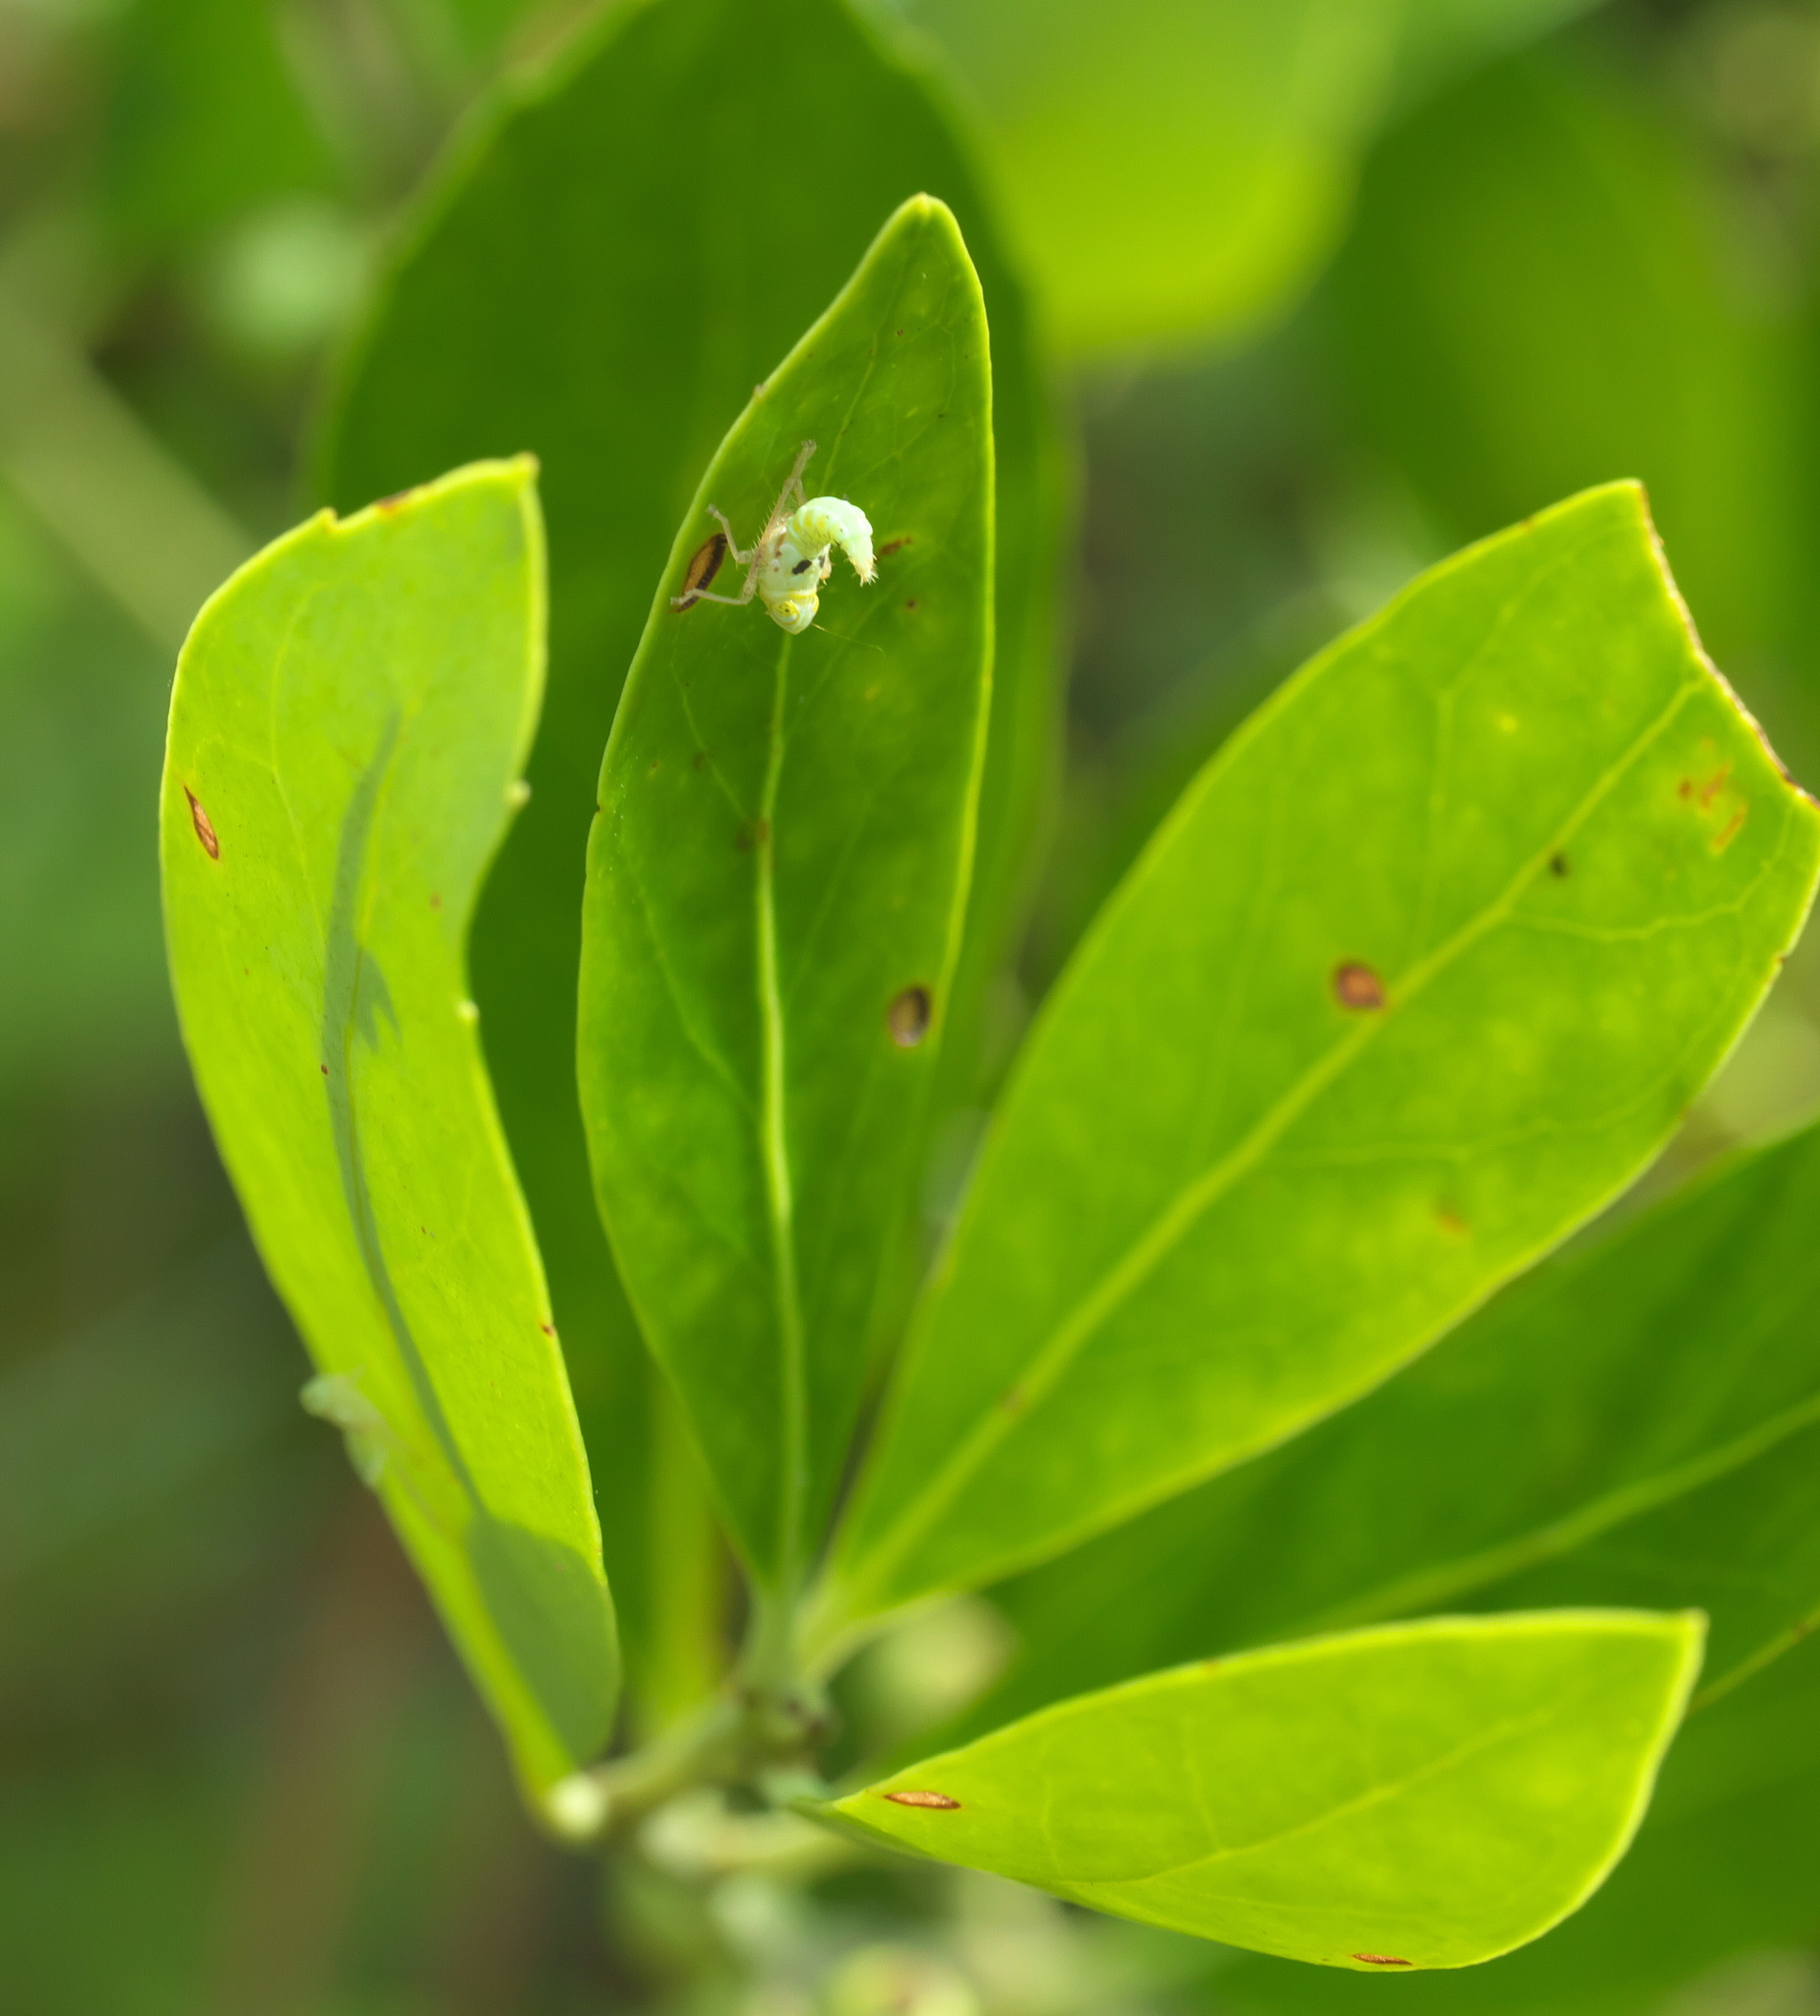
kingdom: Animalia
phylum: Arthropoda
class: Insecta
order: Hemiptera
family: Cicadellidae
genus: Jikradia
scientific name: Jikradia olitoria
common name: Coppery leafhopper
